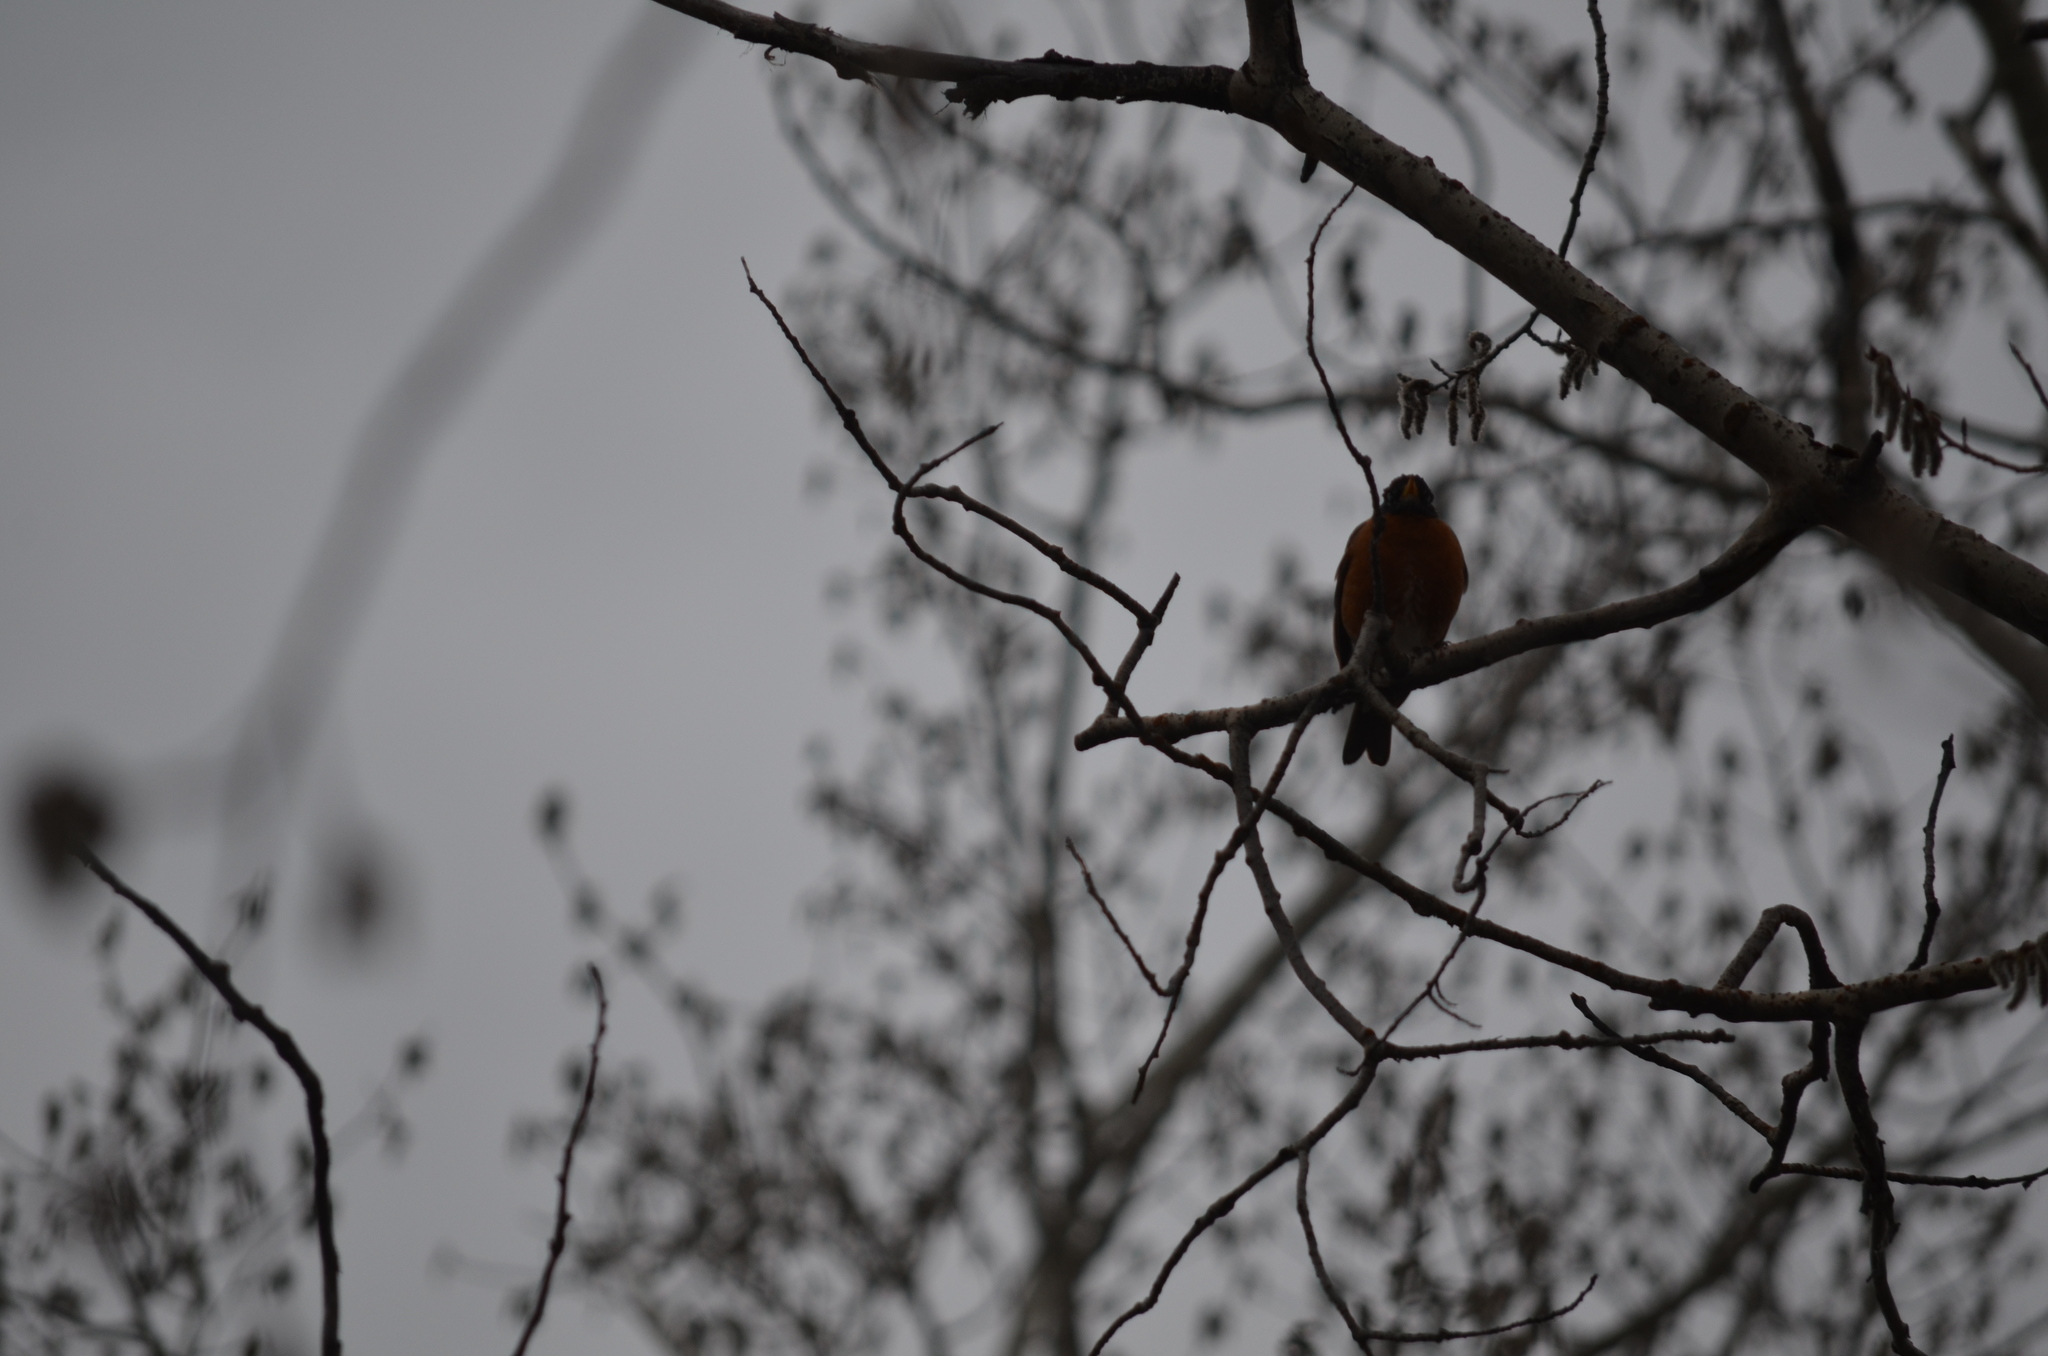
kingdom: Animalia
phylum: Chordata
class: Aves
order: Passeriformes
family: Turdidae
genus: Turdus
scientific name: Turdus migratorius
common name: American robin
